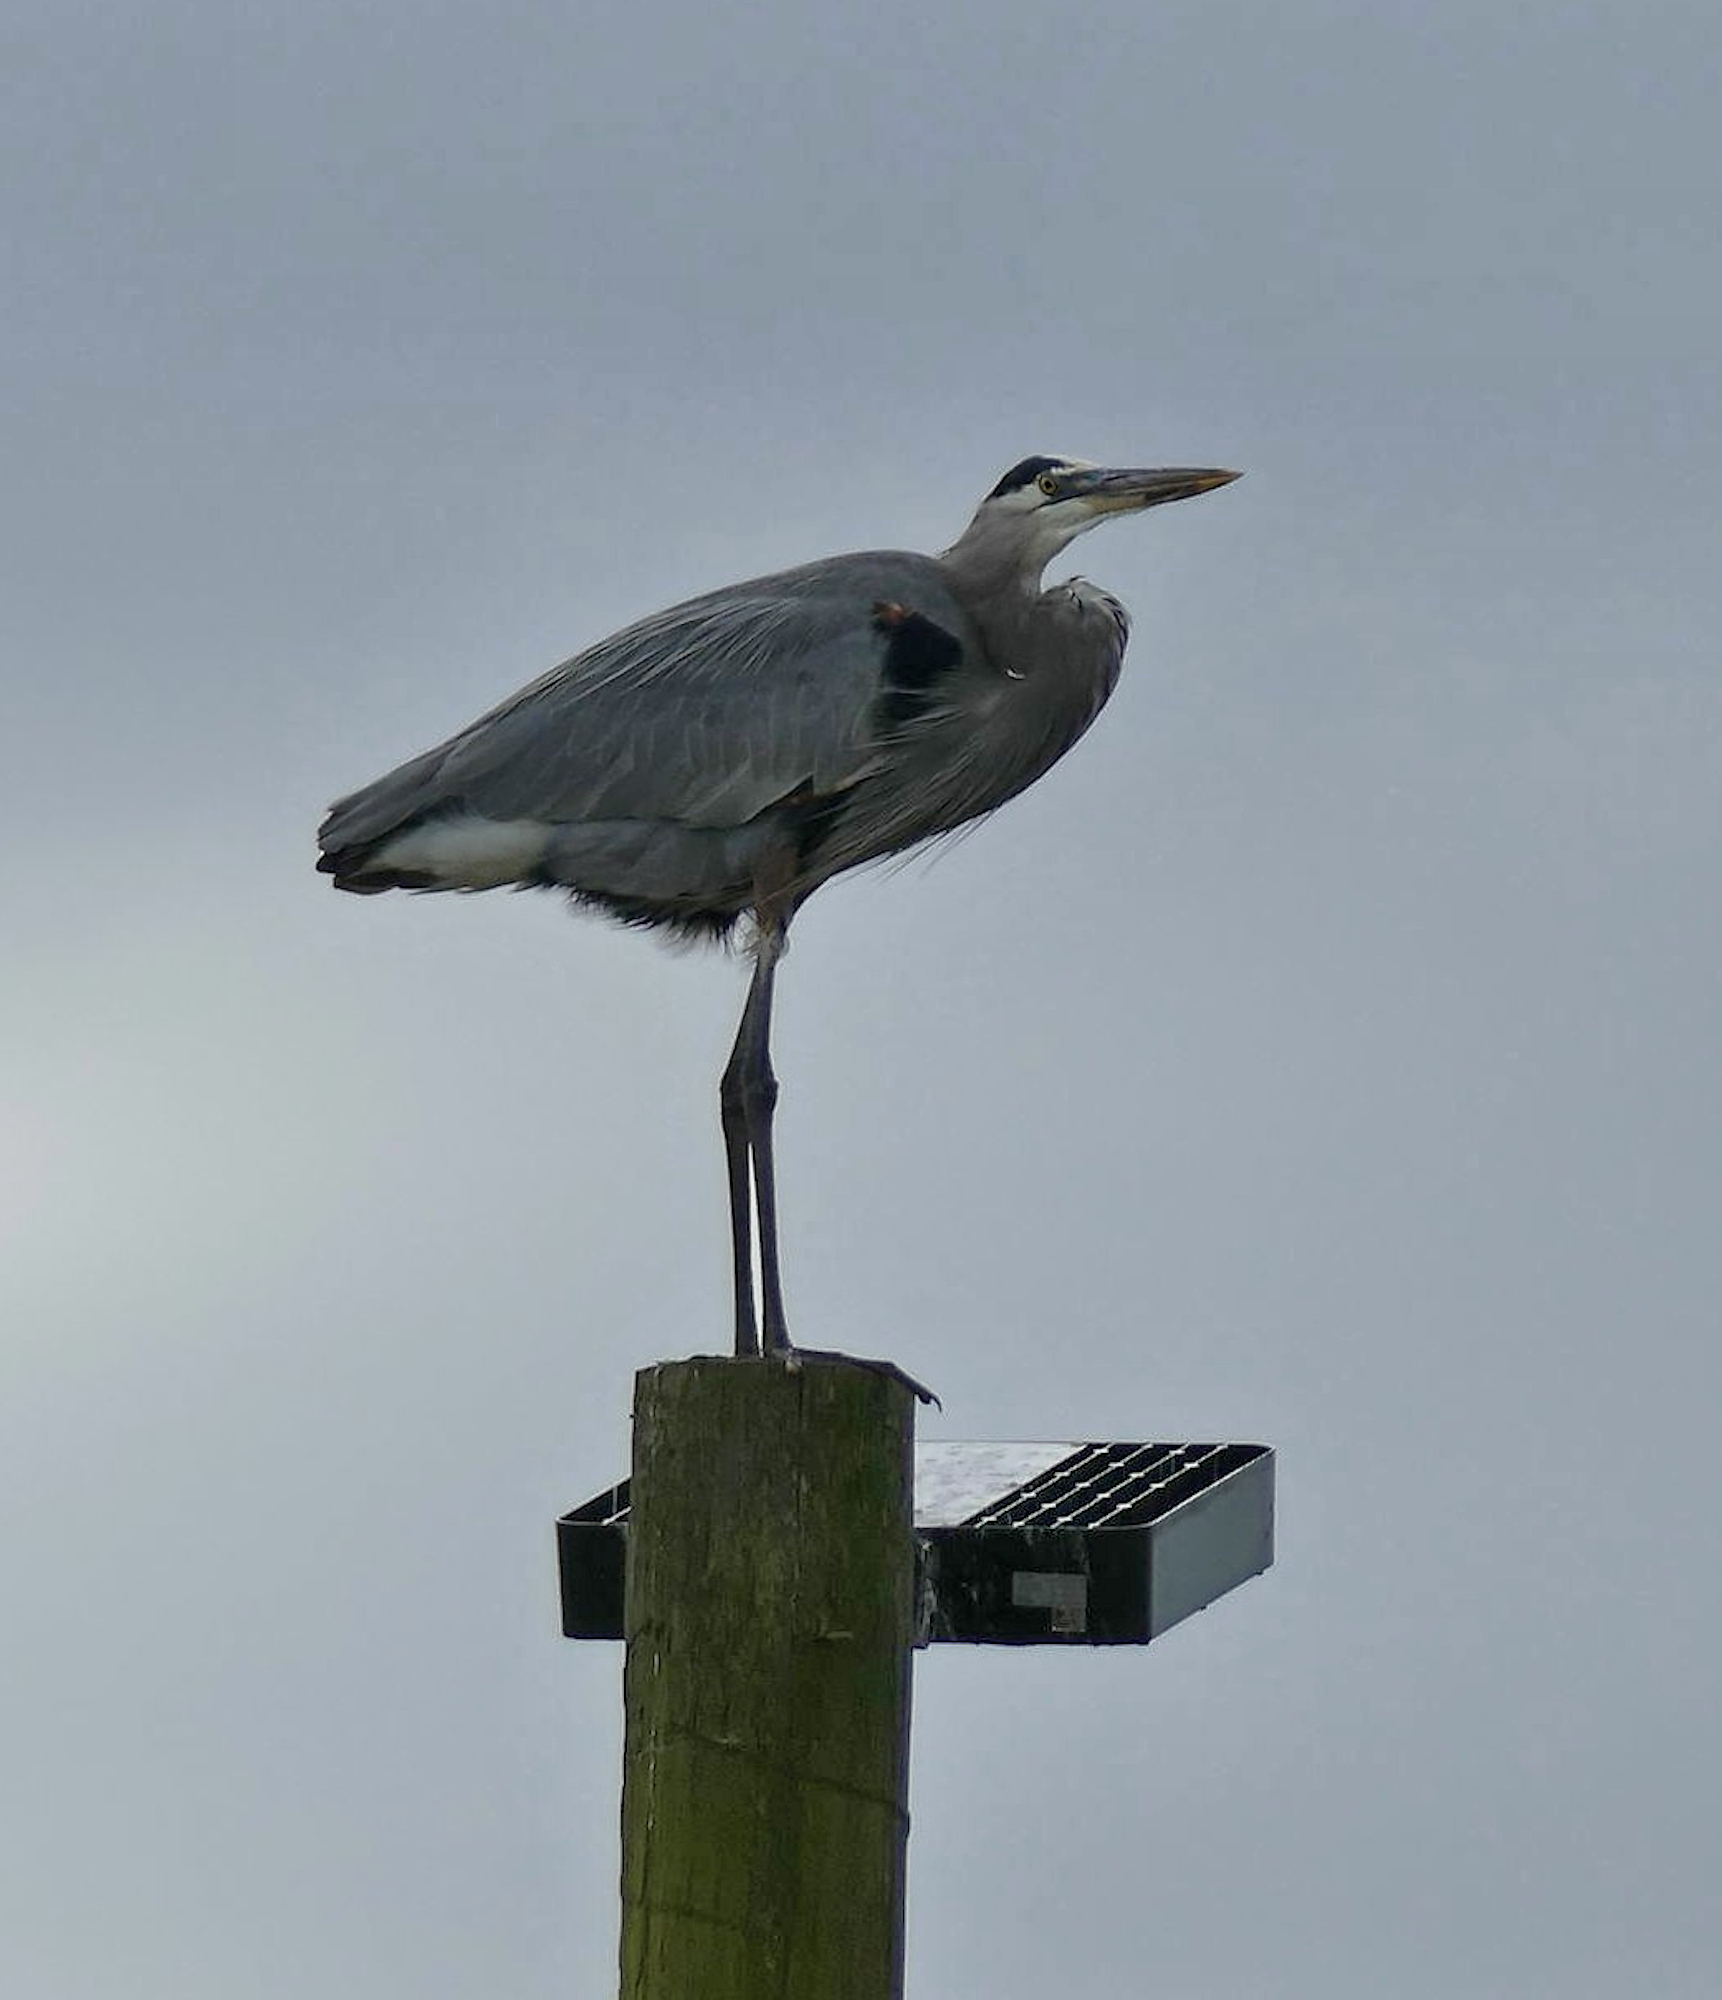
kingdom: Animalia
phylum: Chordata
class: Aves
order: Pelecaniformes
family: Ardeidae
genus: Ardea
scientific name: Ardea herodias
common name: Great blue heron
